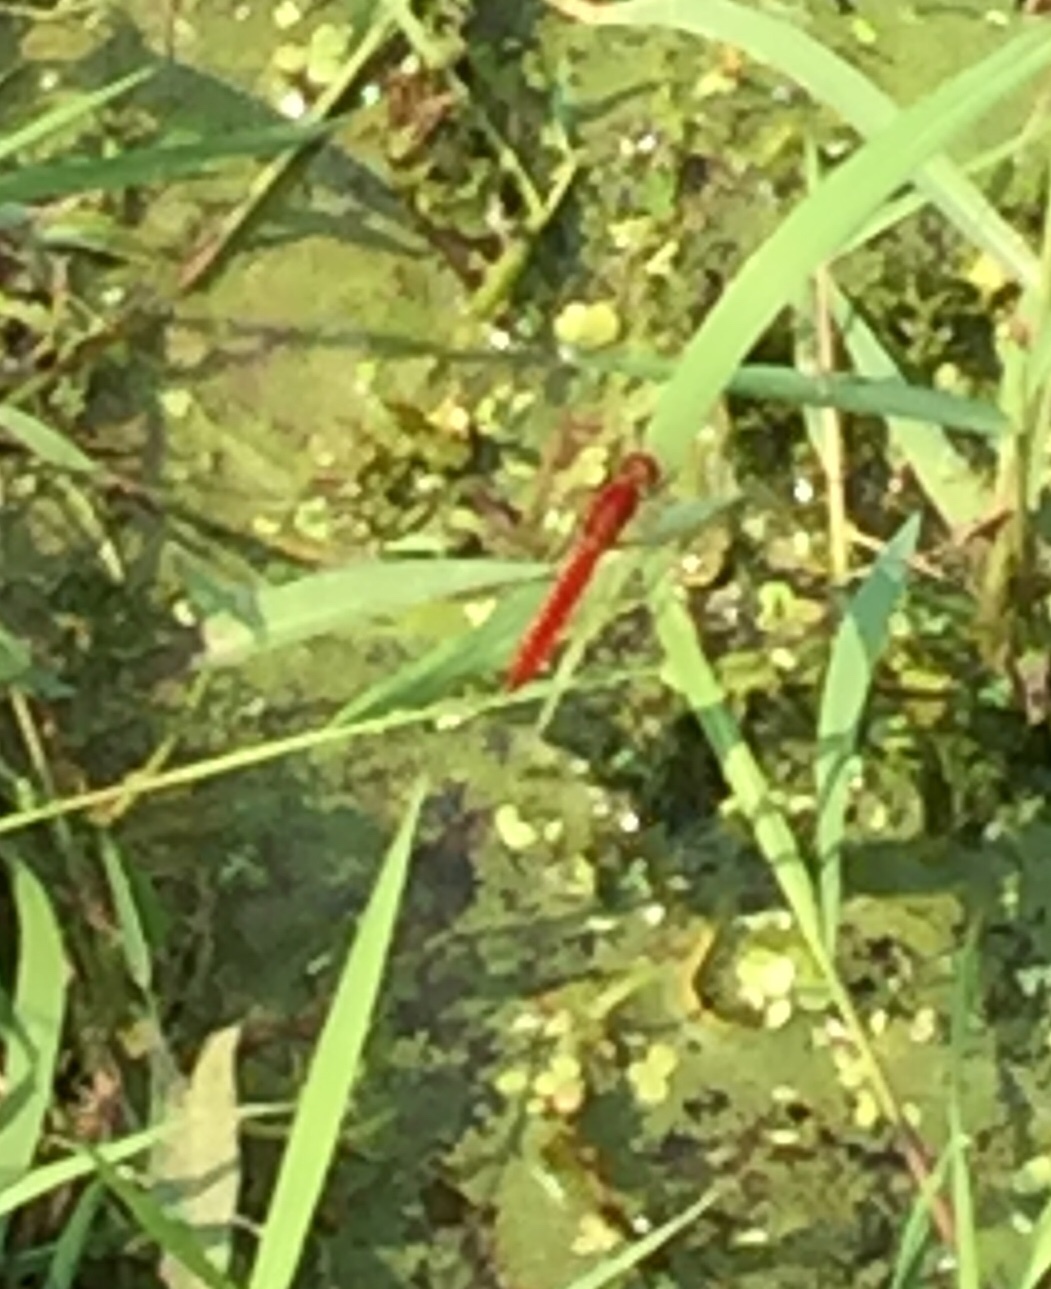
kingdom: Animalia
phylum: Arthropoda
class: Insecta
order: Odonata
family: Libellulidae
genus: Crocothemis
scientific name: Crocothemis servilia
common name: Scarlet skimmer
